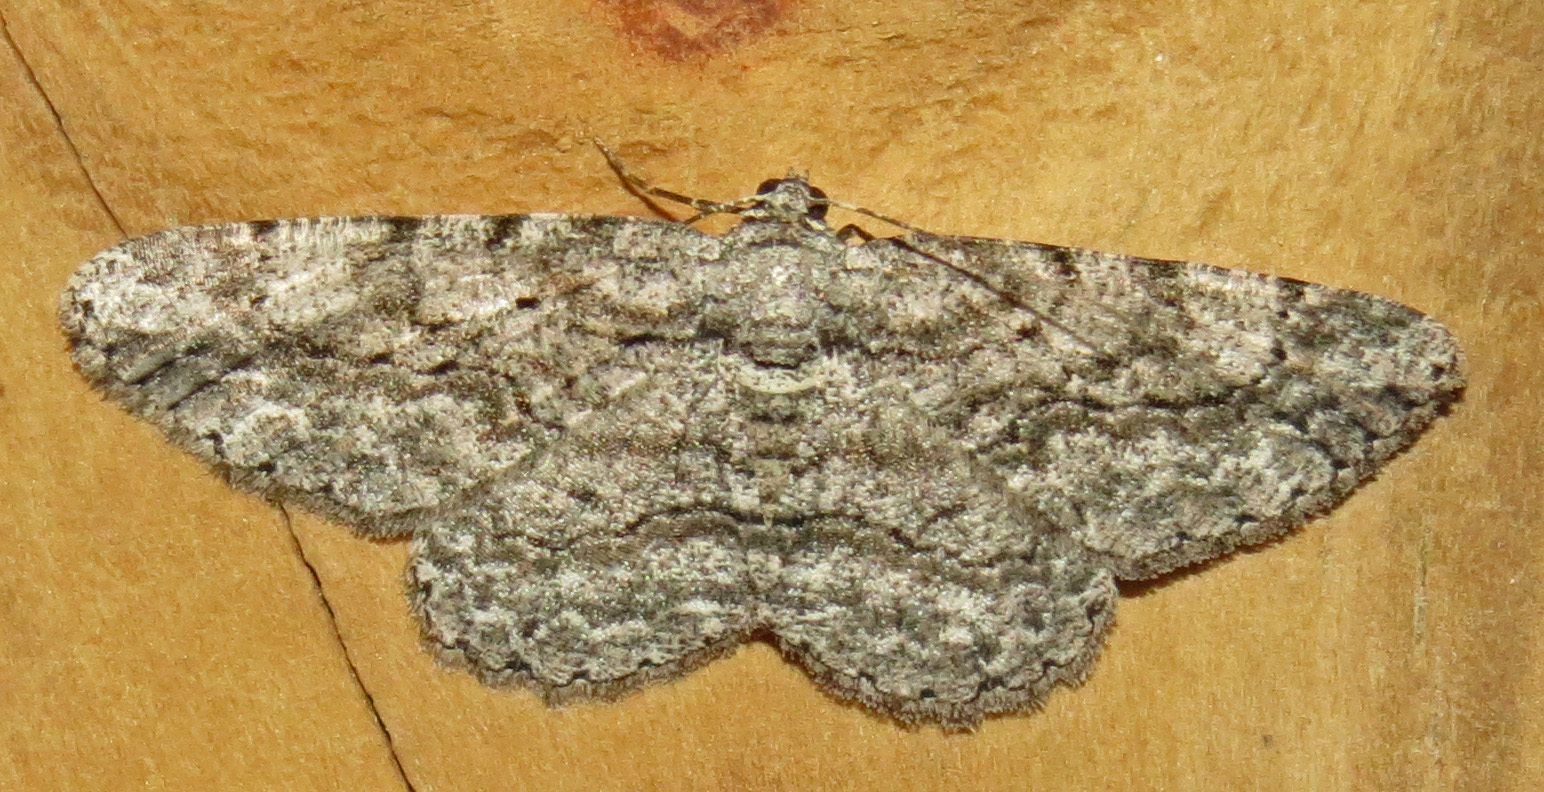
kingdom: Animalia
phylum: Arthropoda
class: Insecta
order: Lepidoptera
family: Geometridae
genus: Anavitrinella
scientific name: Anavitrinella pampinaria
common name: Common gray
